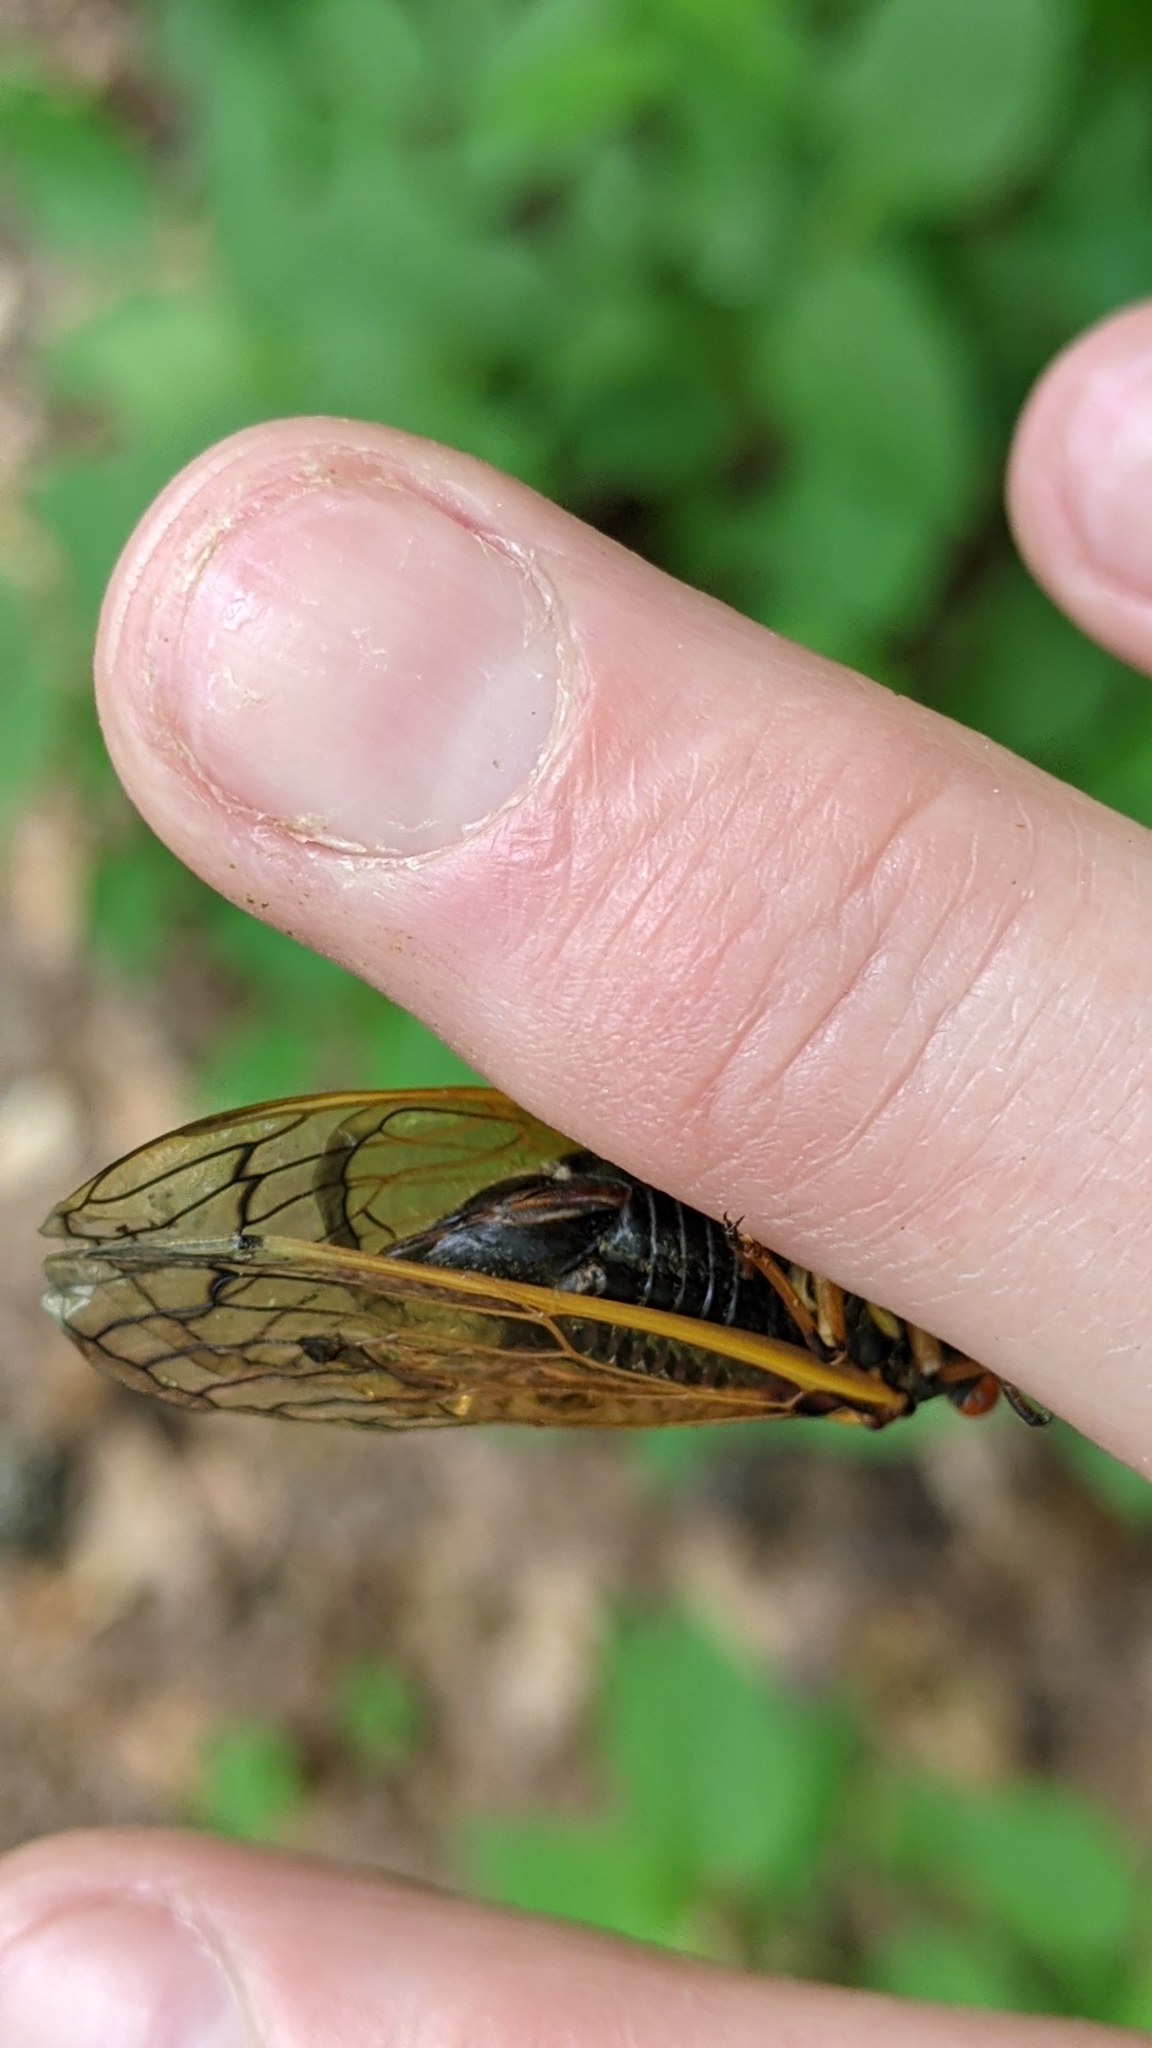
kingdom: Animalia
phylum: Arthropoda
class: Insecta
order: Hemiptera
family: Cicadidae
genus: Magicicada
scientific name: Magicicada cassini
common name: Cassin's 17-year cicada
